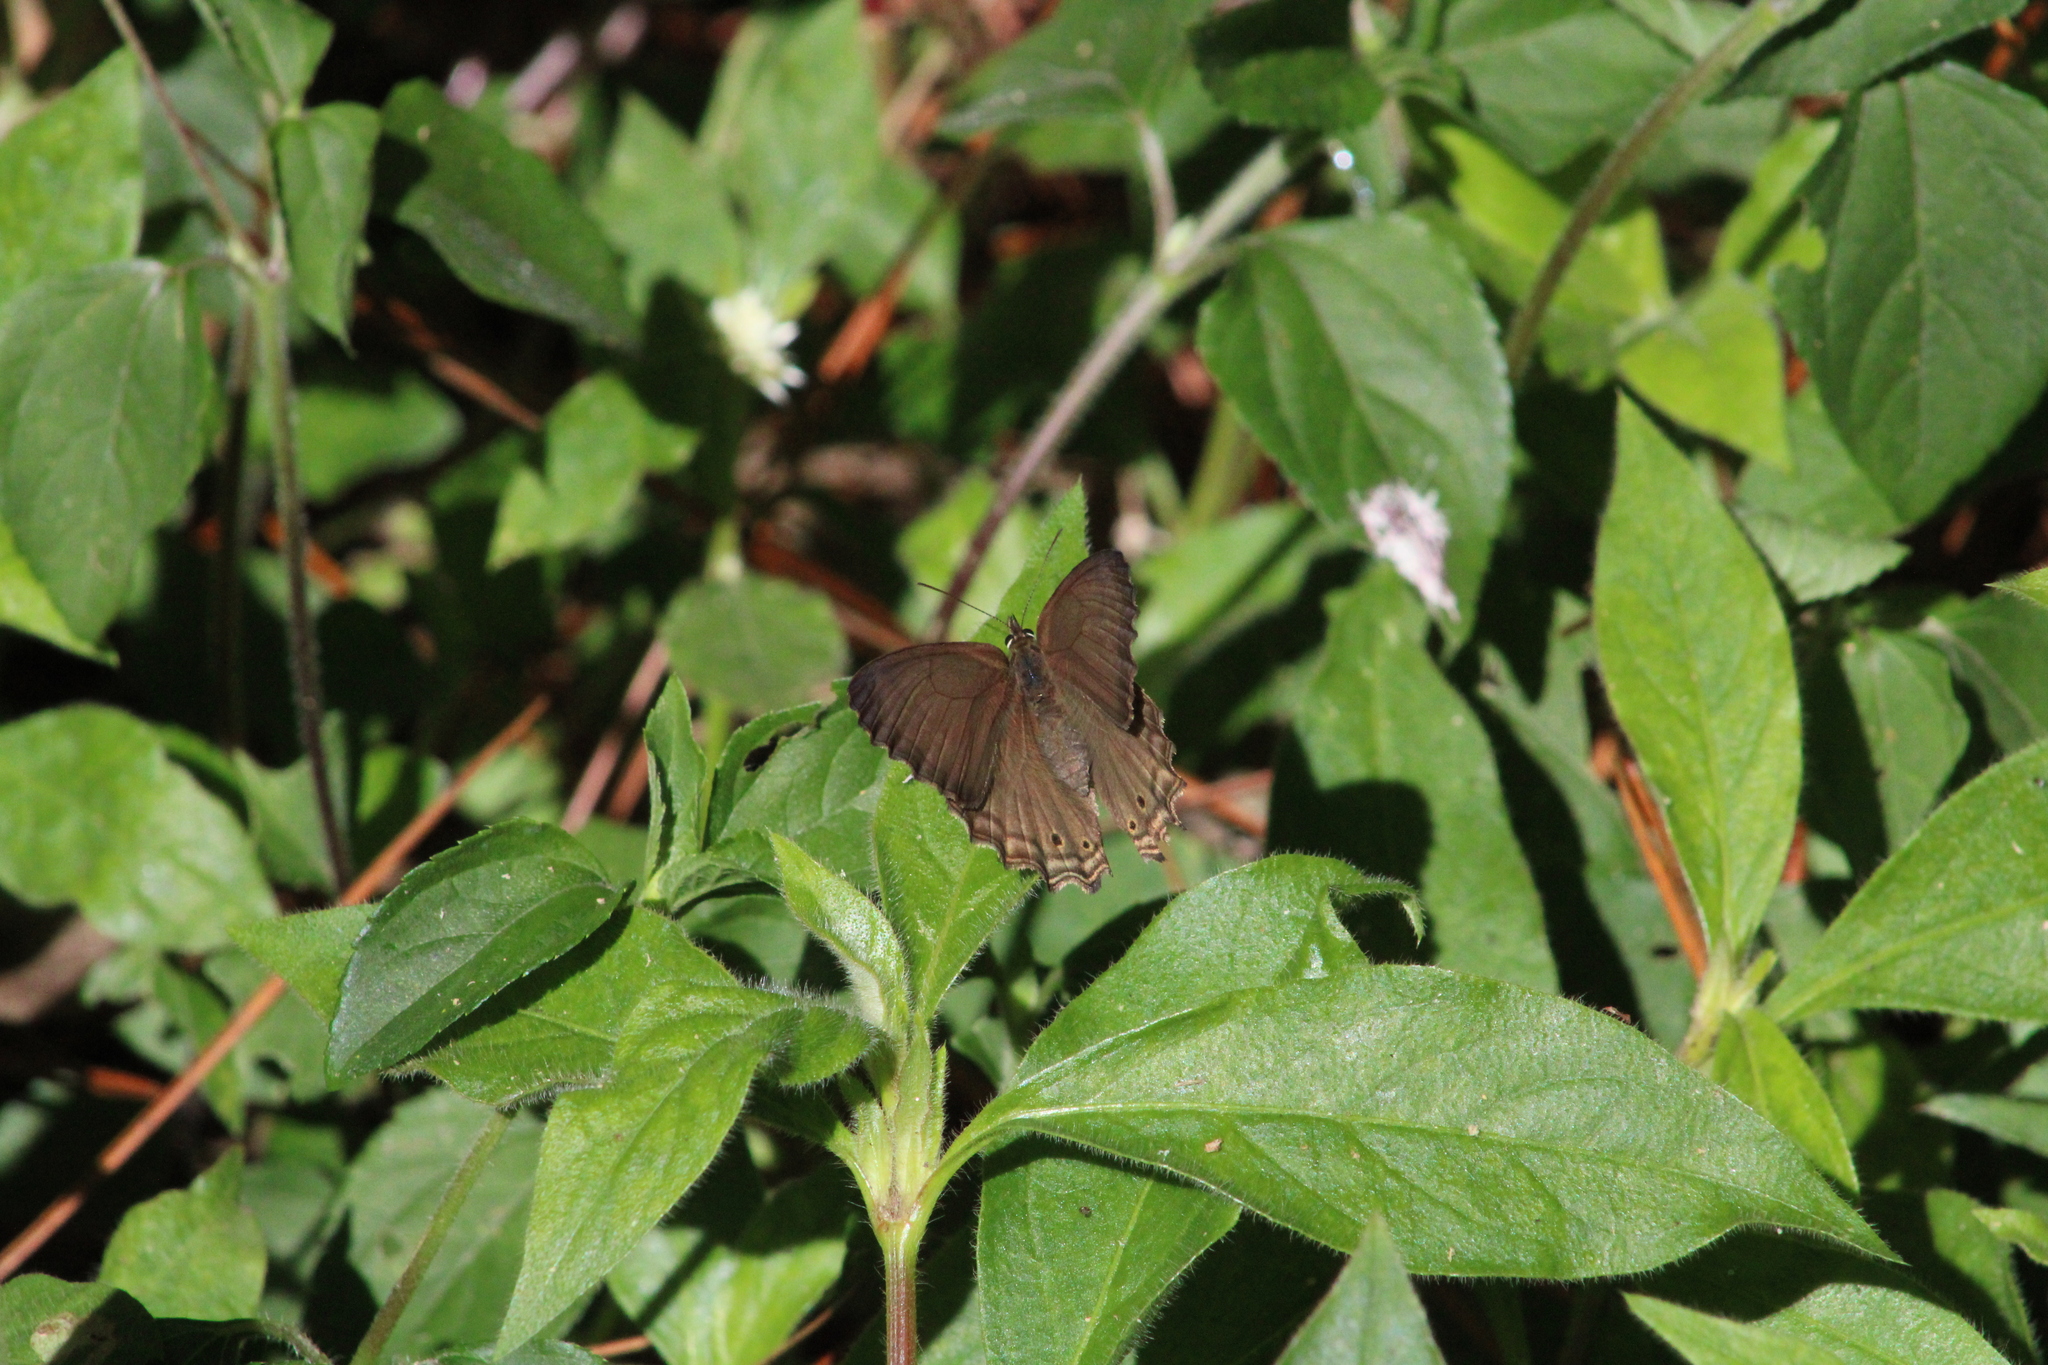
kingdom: Animalia
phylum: Arthropoda
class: Insecta
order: Lepidoptera
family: Nymphalidae
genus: Carminda
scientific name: Carminda paeon
